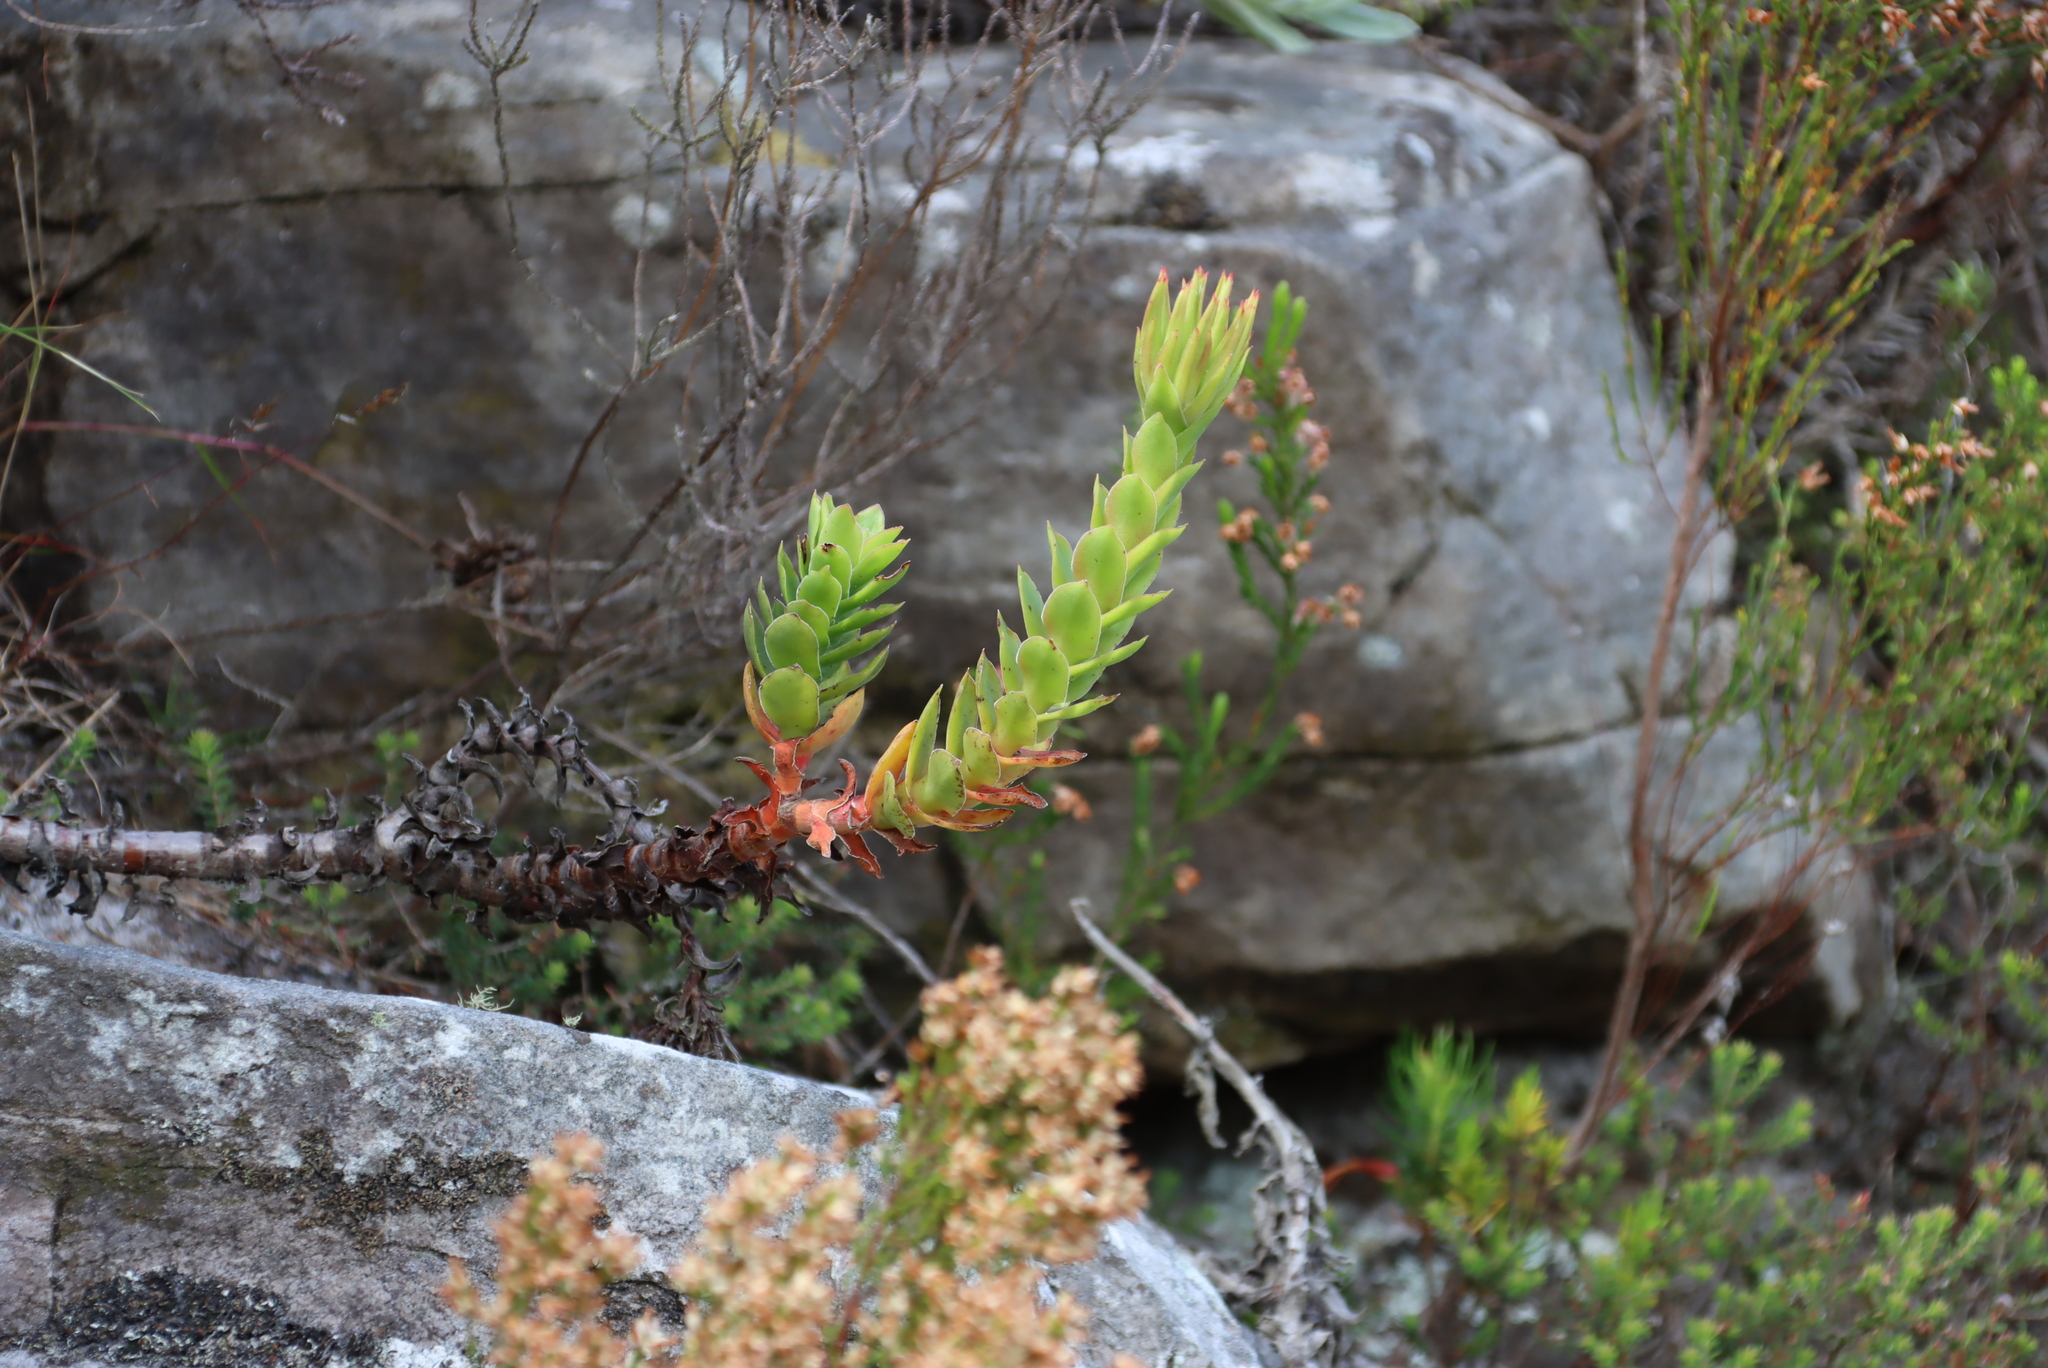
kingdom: Plantae
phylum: Tracheophyta
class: Magnoliopsida
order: Saxifragales
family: Crassulaceae
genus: Crassula
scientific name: Crassula coccinea
